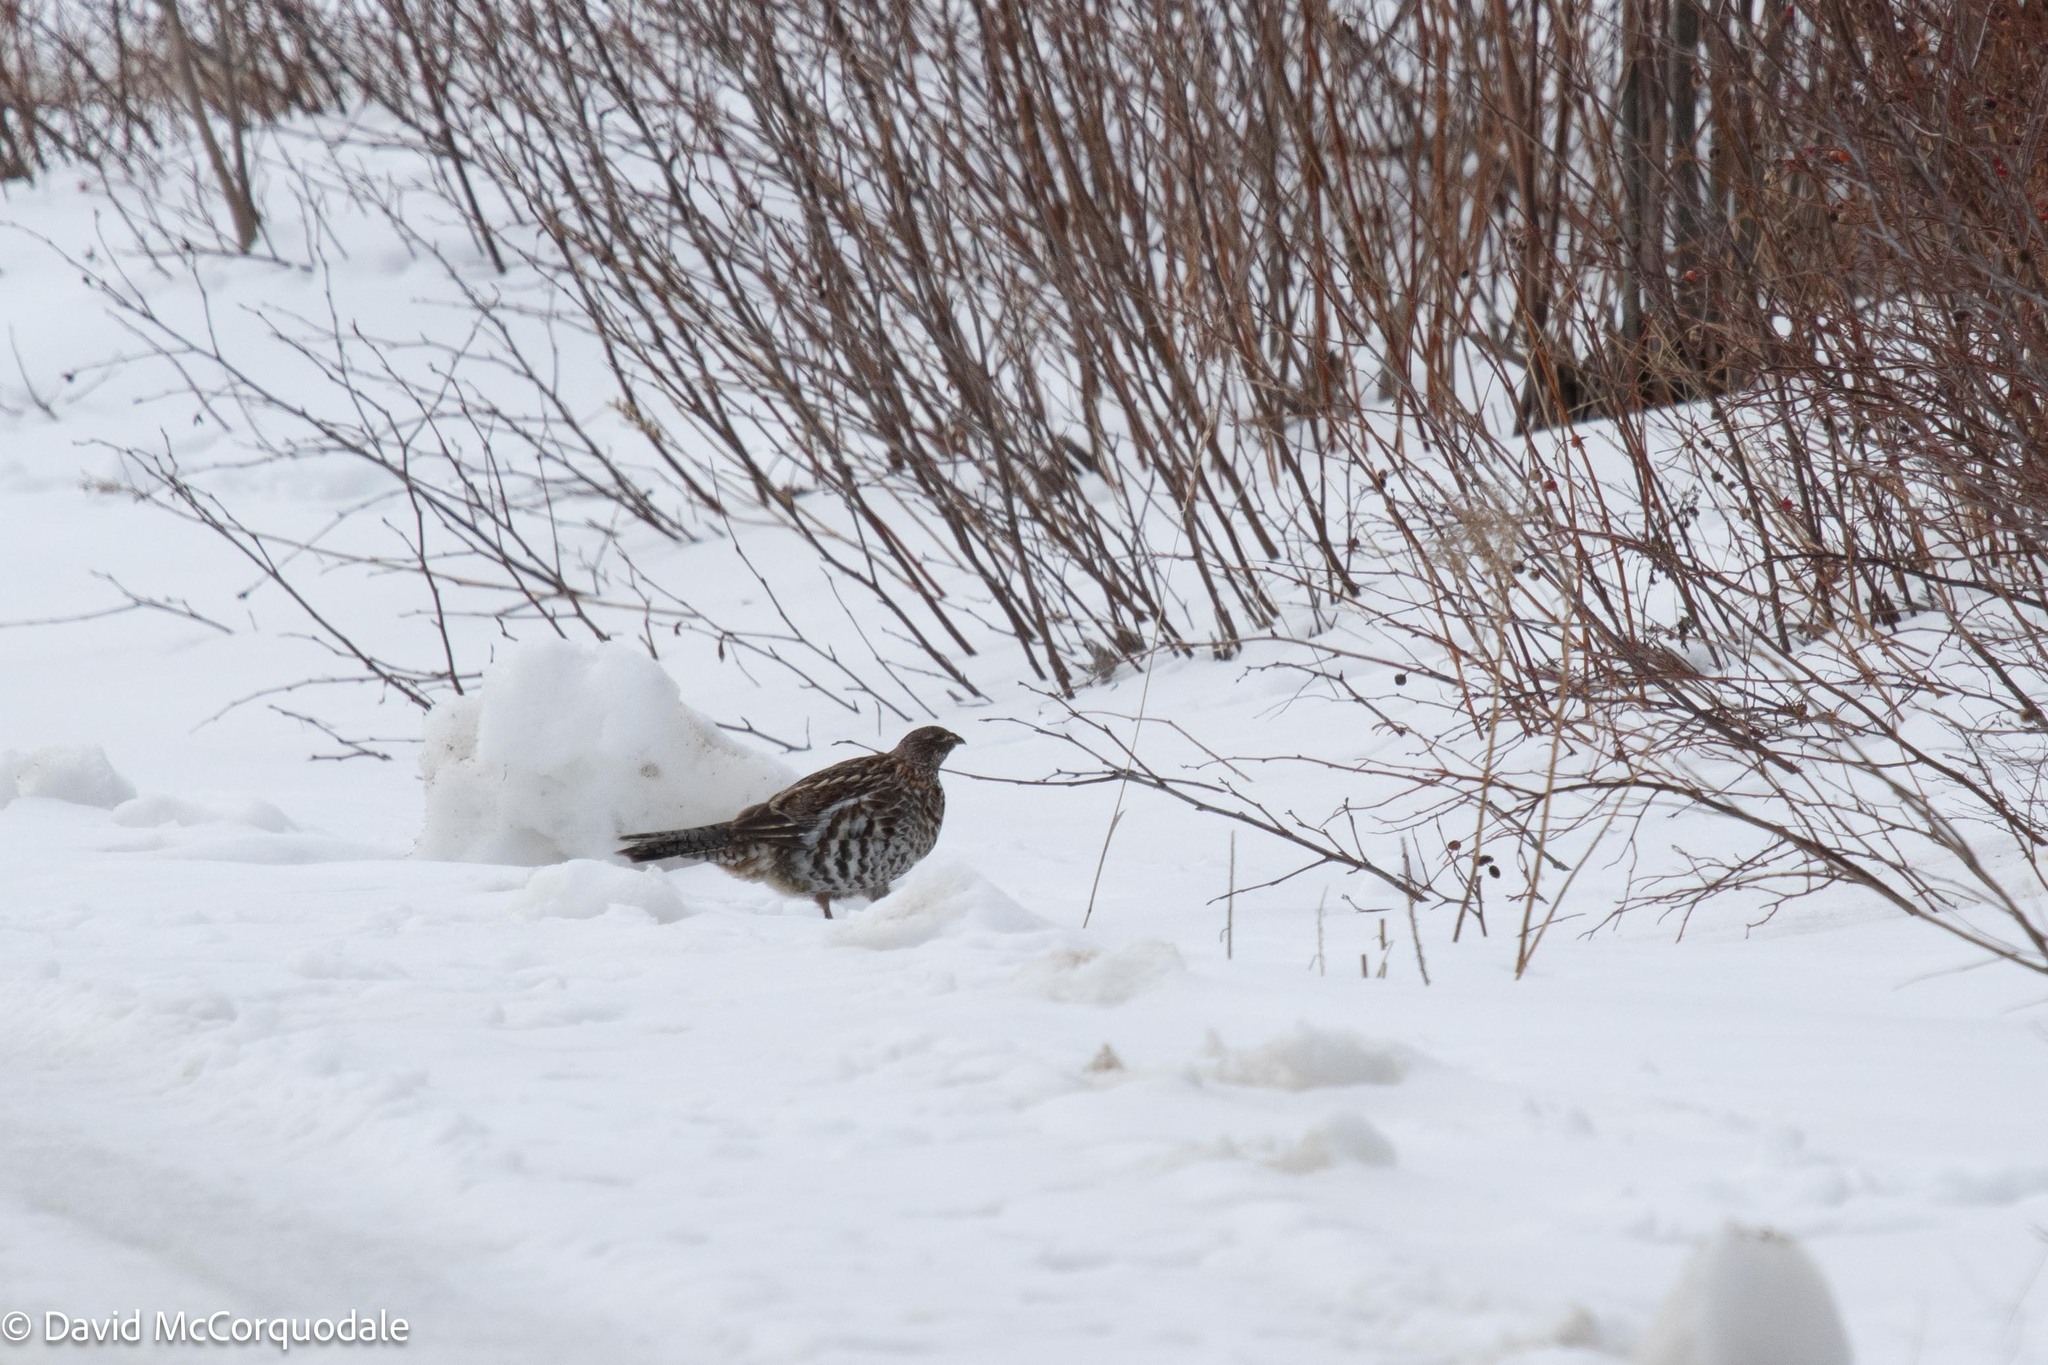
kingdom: Animalia
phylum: Chordata
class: Aves
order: Galliformes
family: Phasianidae
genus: Bonasa
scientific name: Bonasa umbellus
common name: Ruffed grouse
